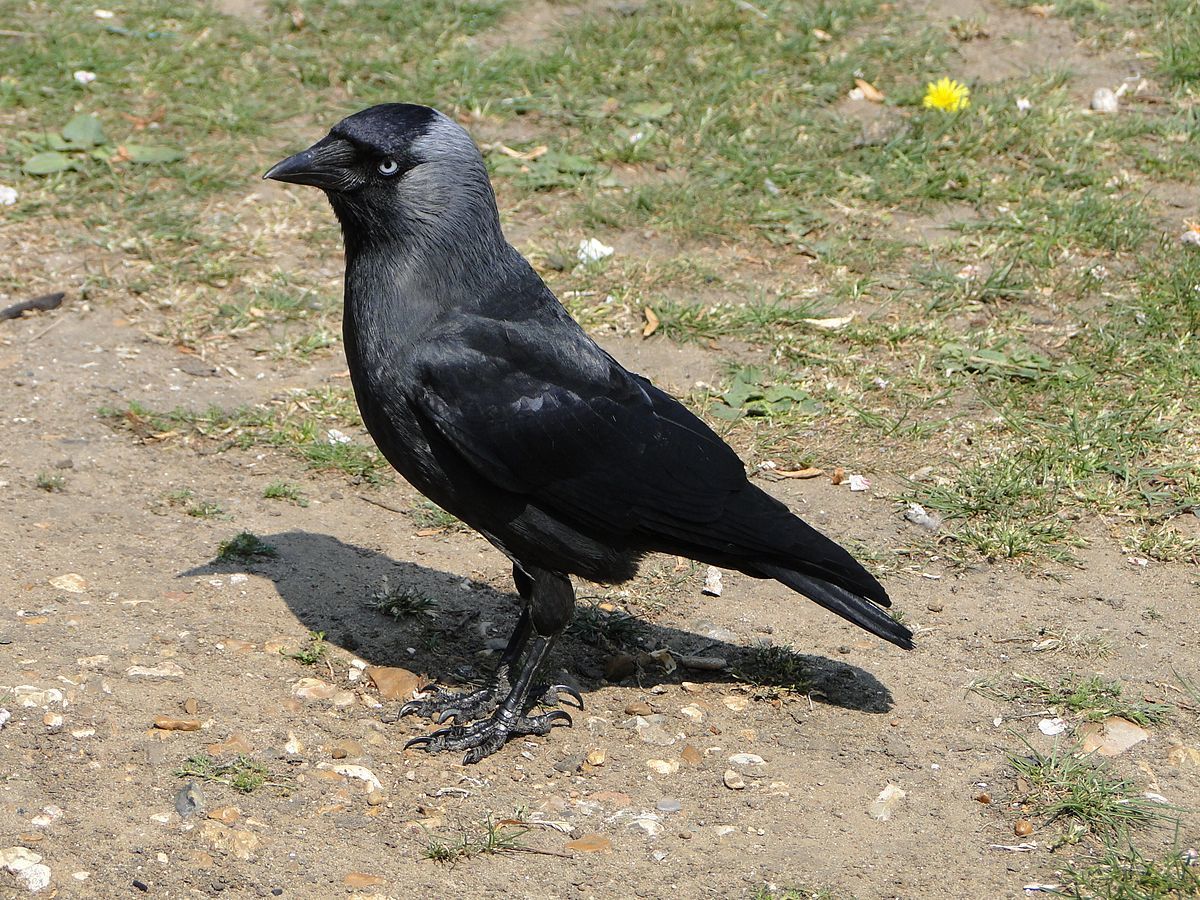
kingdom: Animalia
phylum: Chordata
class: Aves
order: Passeriformes
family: Corvidae
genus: Coloeus
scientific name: Coloeus monedula
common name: Western jackdaw
